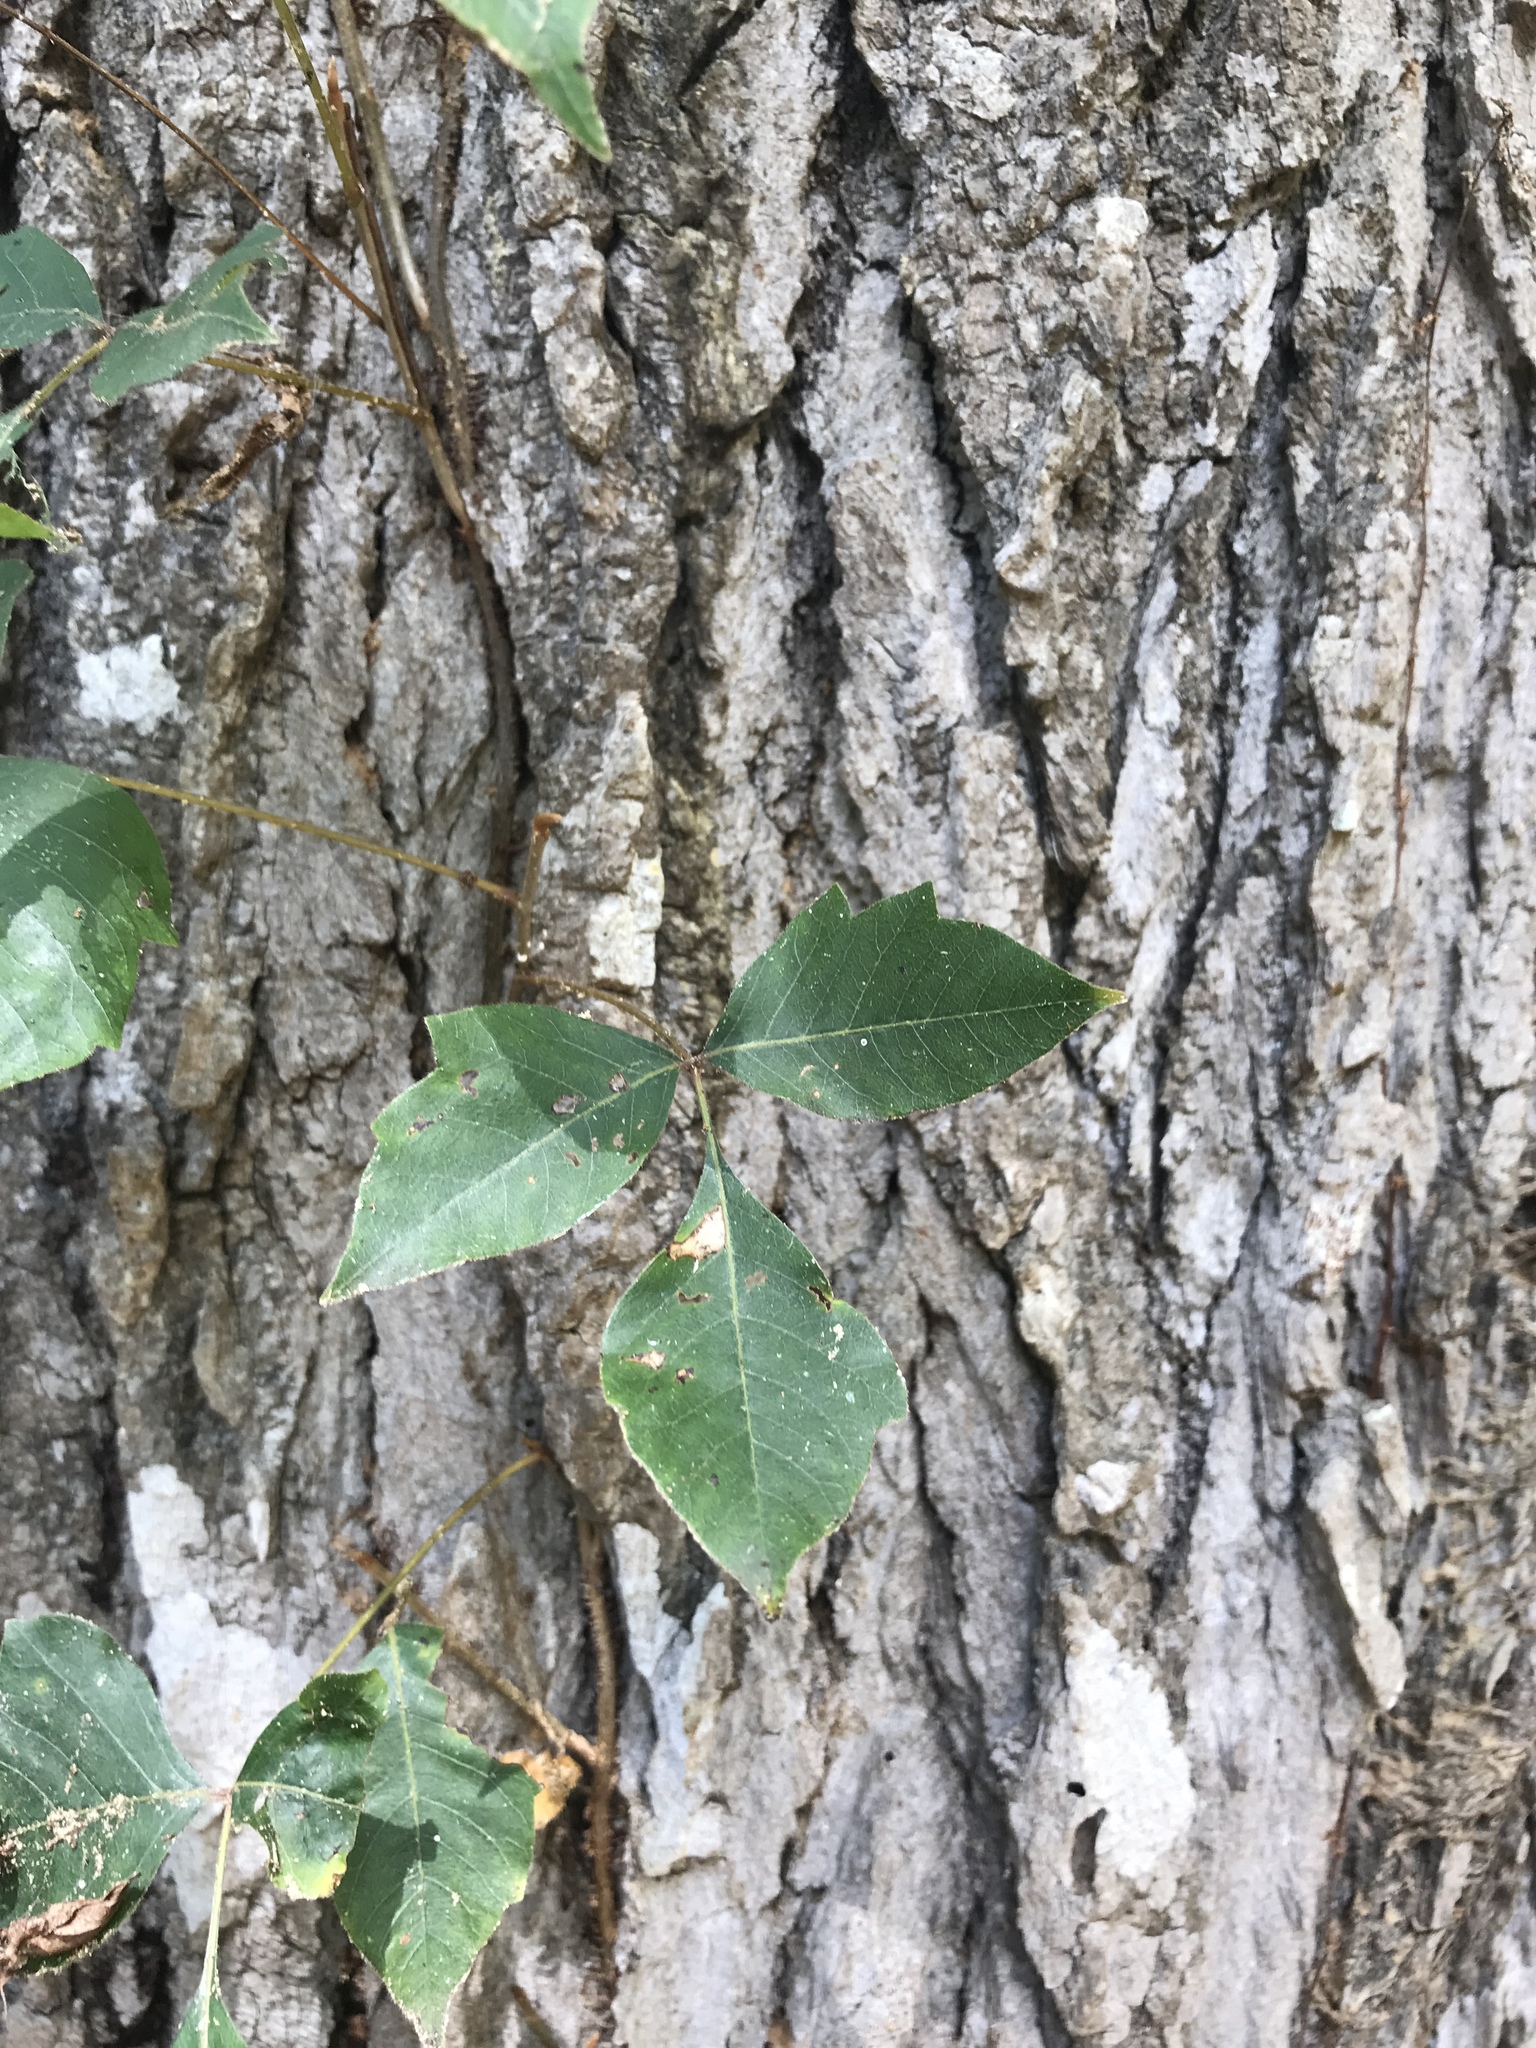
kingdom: Plantae
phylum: Tracheophyta
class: Magnoliopsida
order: Sapindales
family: Anacardiaceae
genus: Toxicodendron
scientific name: Toxicodendron radicans
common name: Poison ivy
